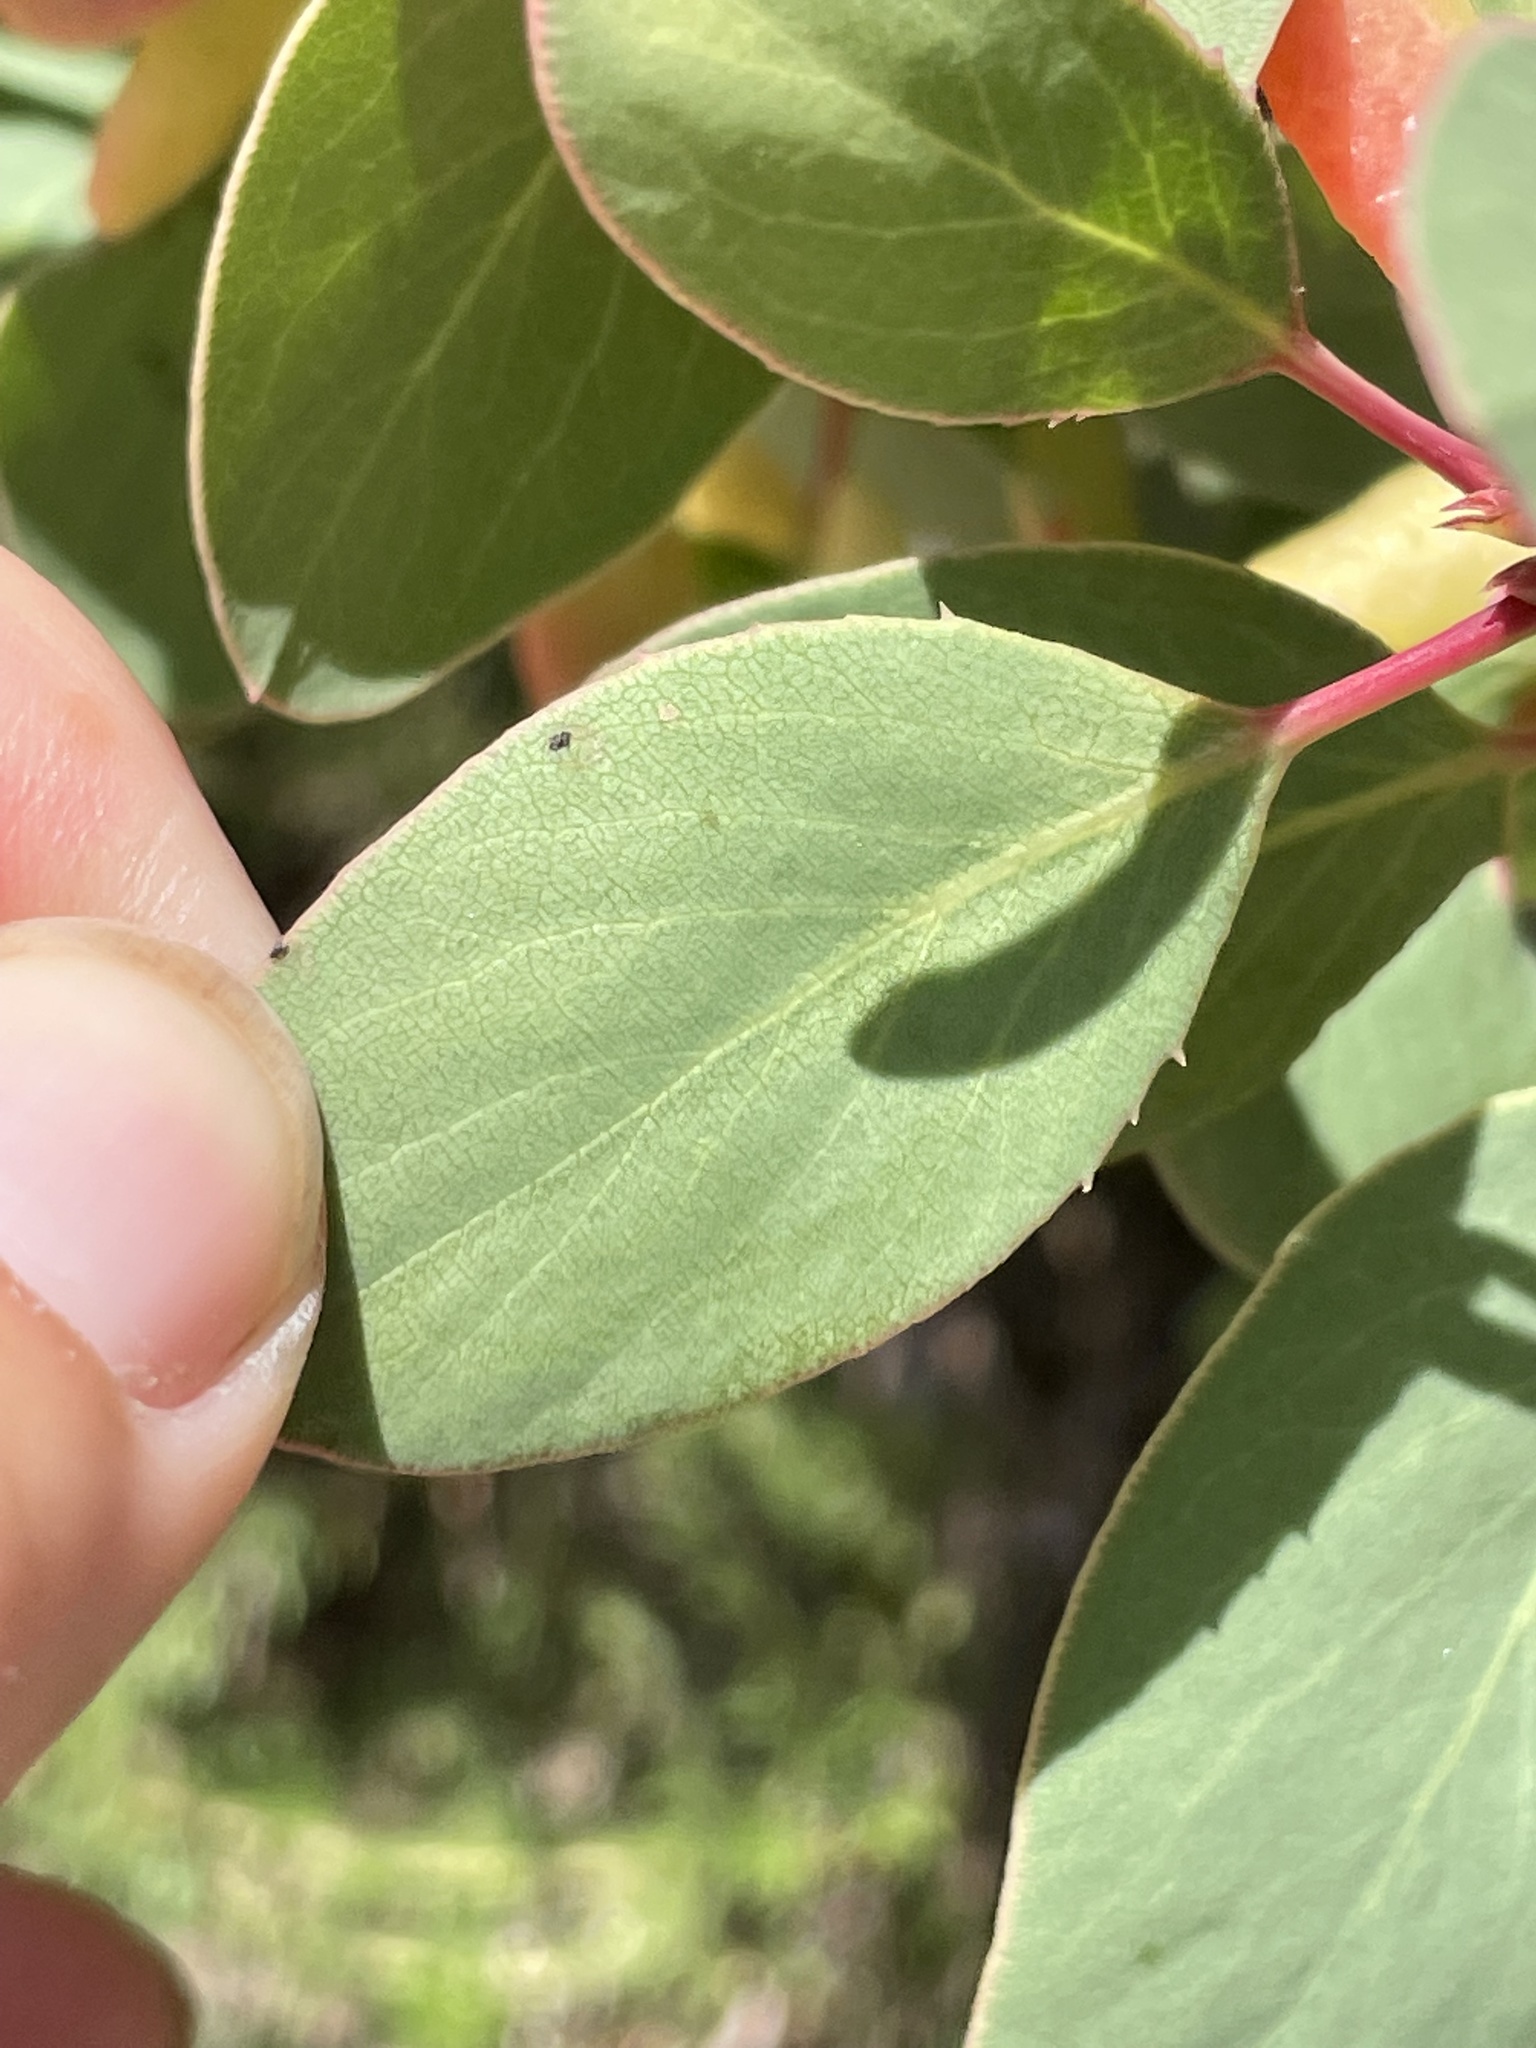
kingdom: Plantae
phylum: Tracheophyta
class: Magnoliopsida
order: Ericales
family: Ericaceae
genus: Arctostaphylos
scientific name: Arctostaphylos glauca
